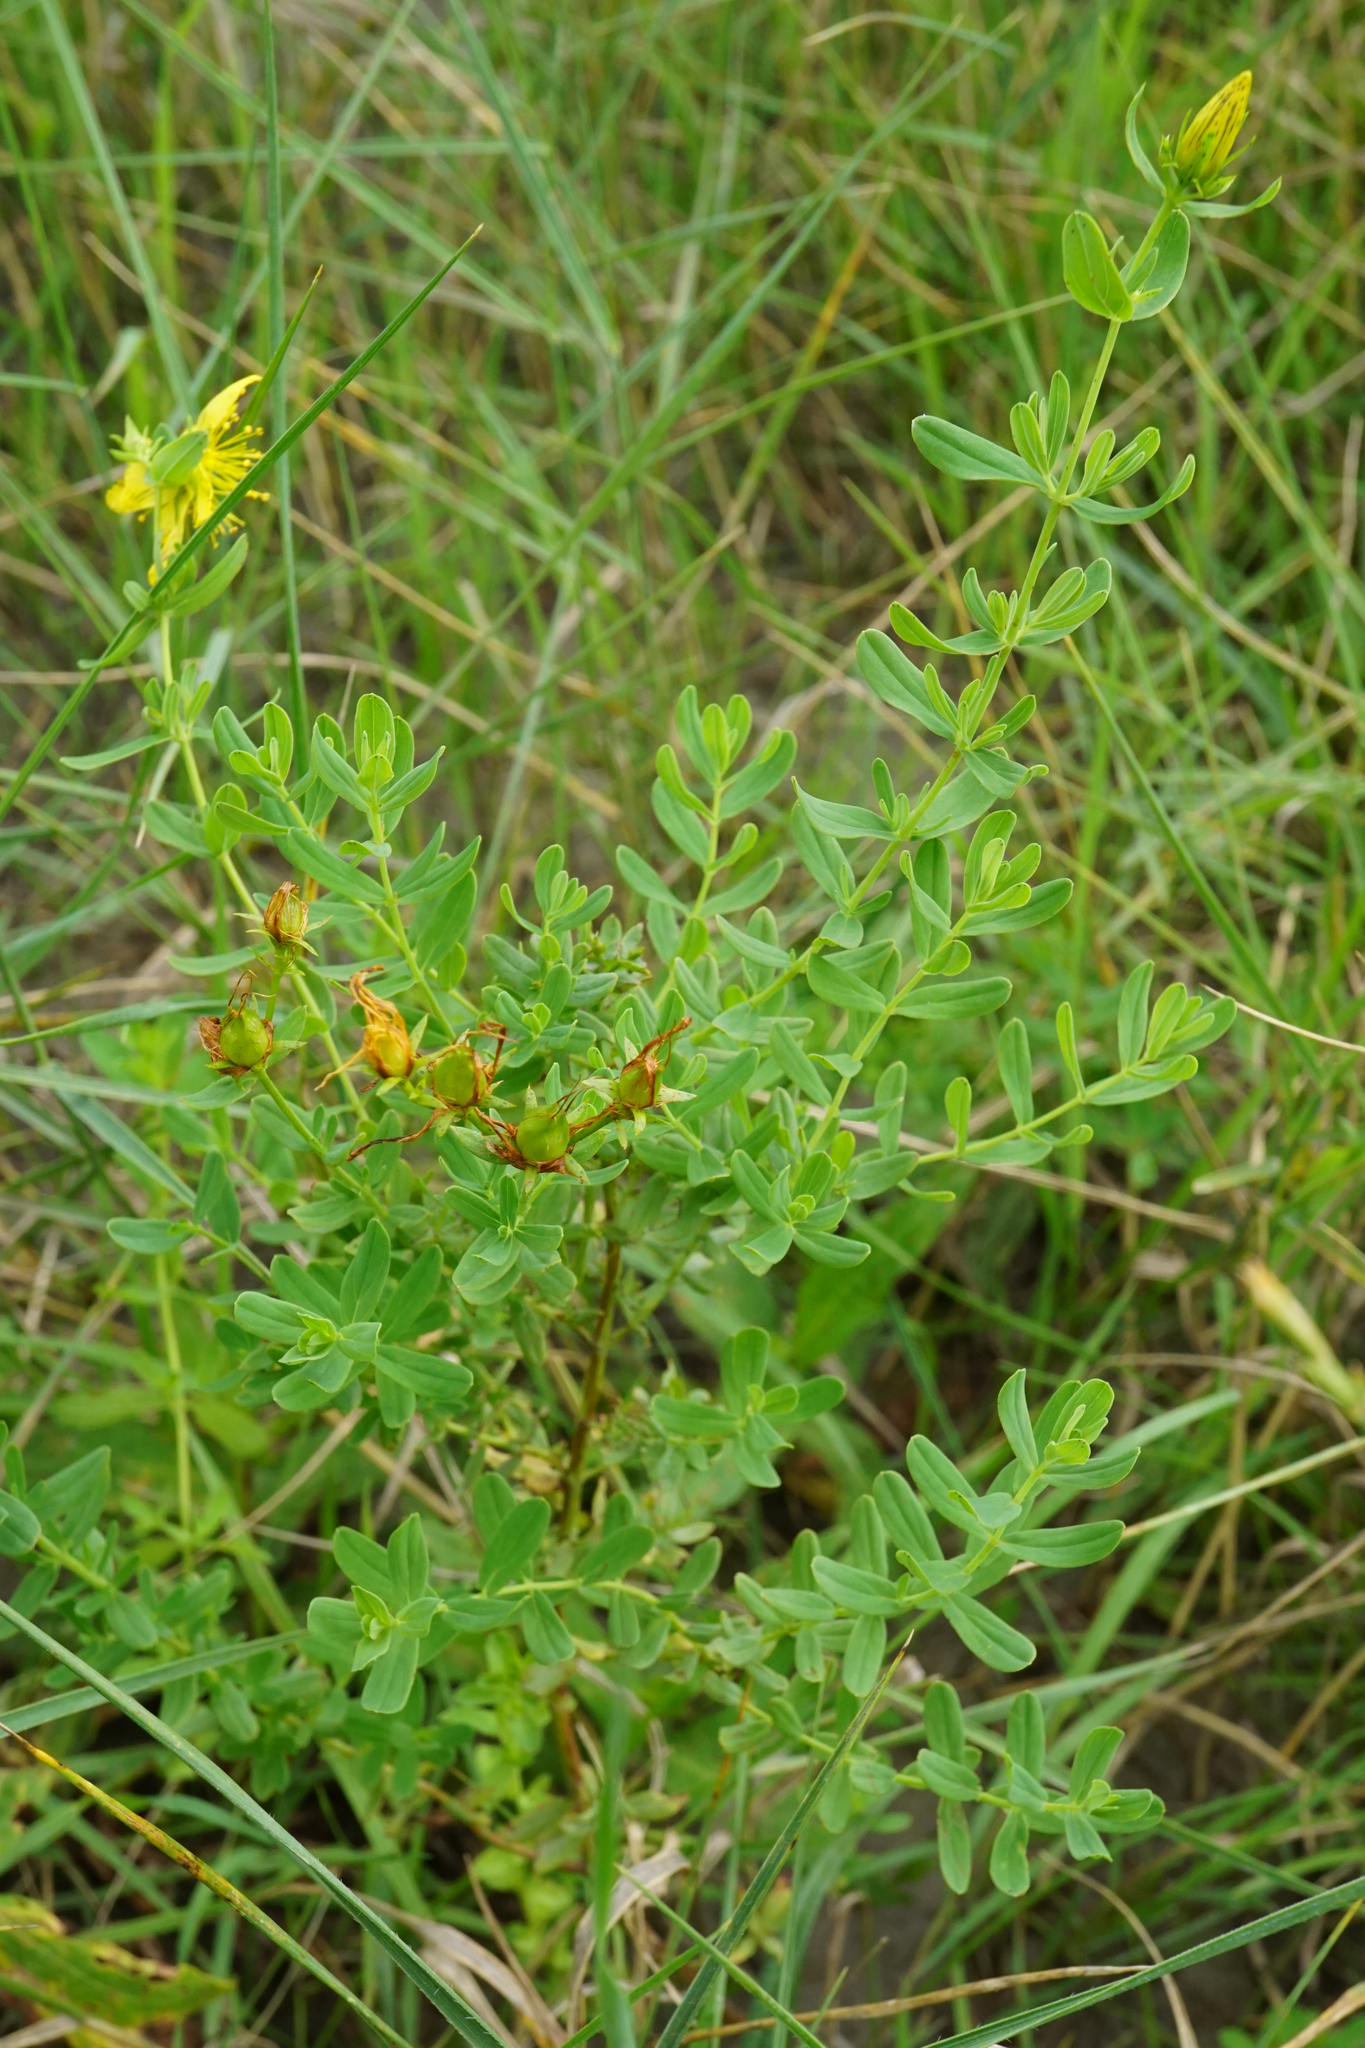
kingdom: Plantae
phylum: Tracheophyta
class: Magnoliopsida
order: Malpighiales
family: Hypericaceae
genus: Hypericum
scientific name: Hypericum desetangsii
